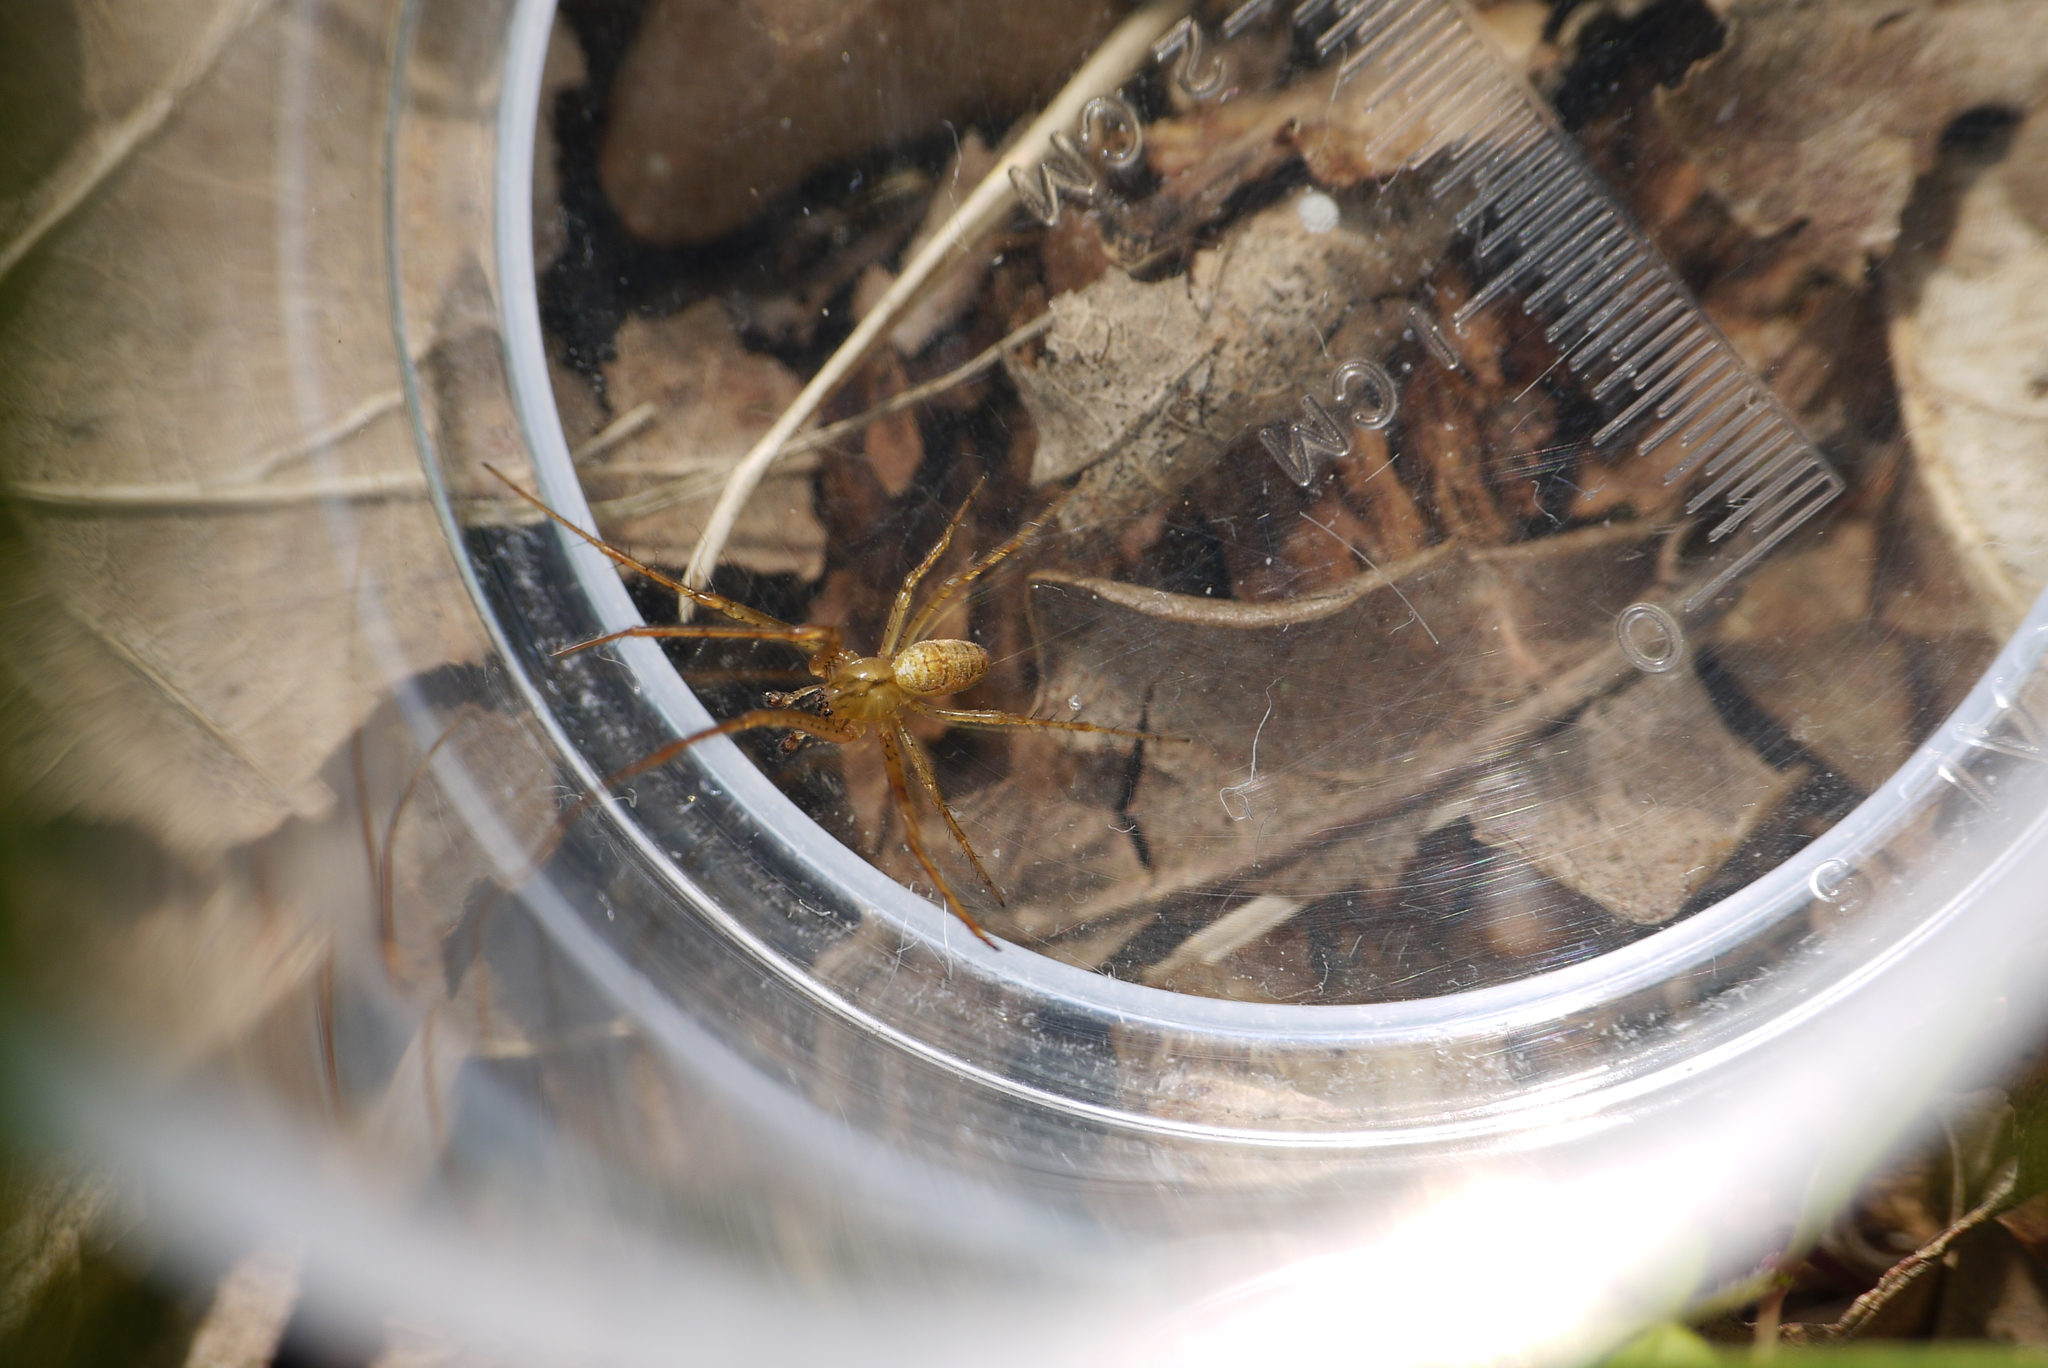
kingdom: Animalia
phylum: Arthropoda
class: Arachnida
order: Araneae
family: Tetragnathidae
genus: Metellina
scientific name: Metellina mengei
